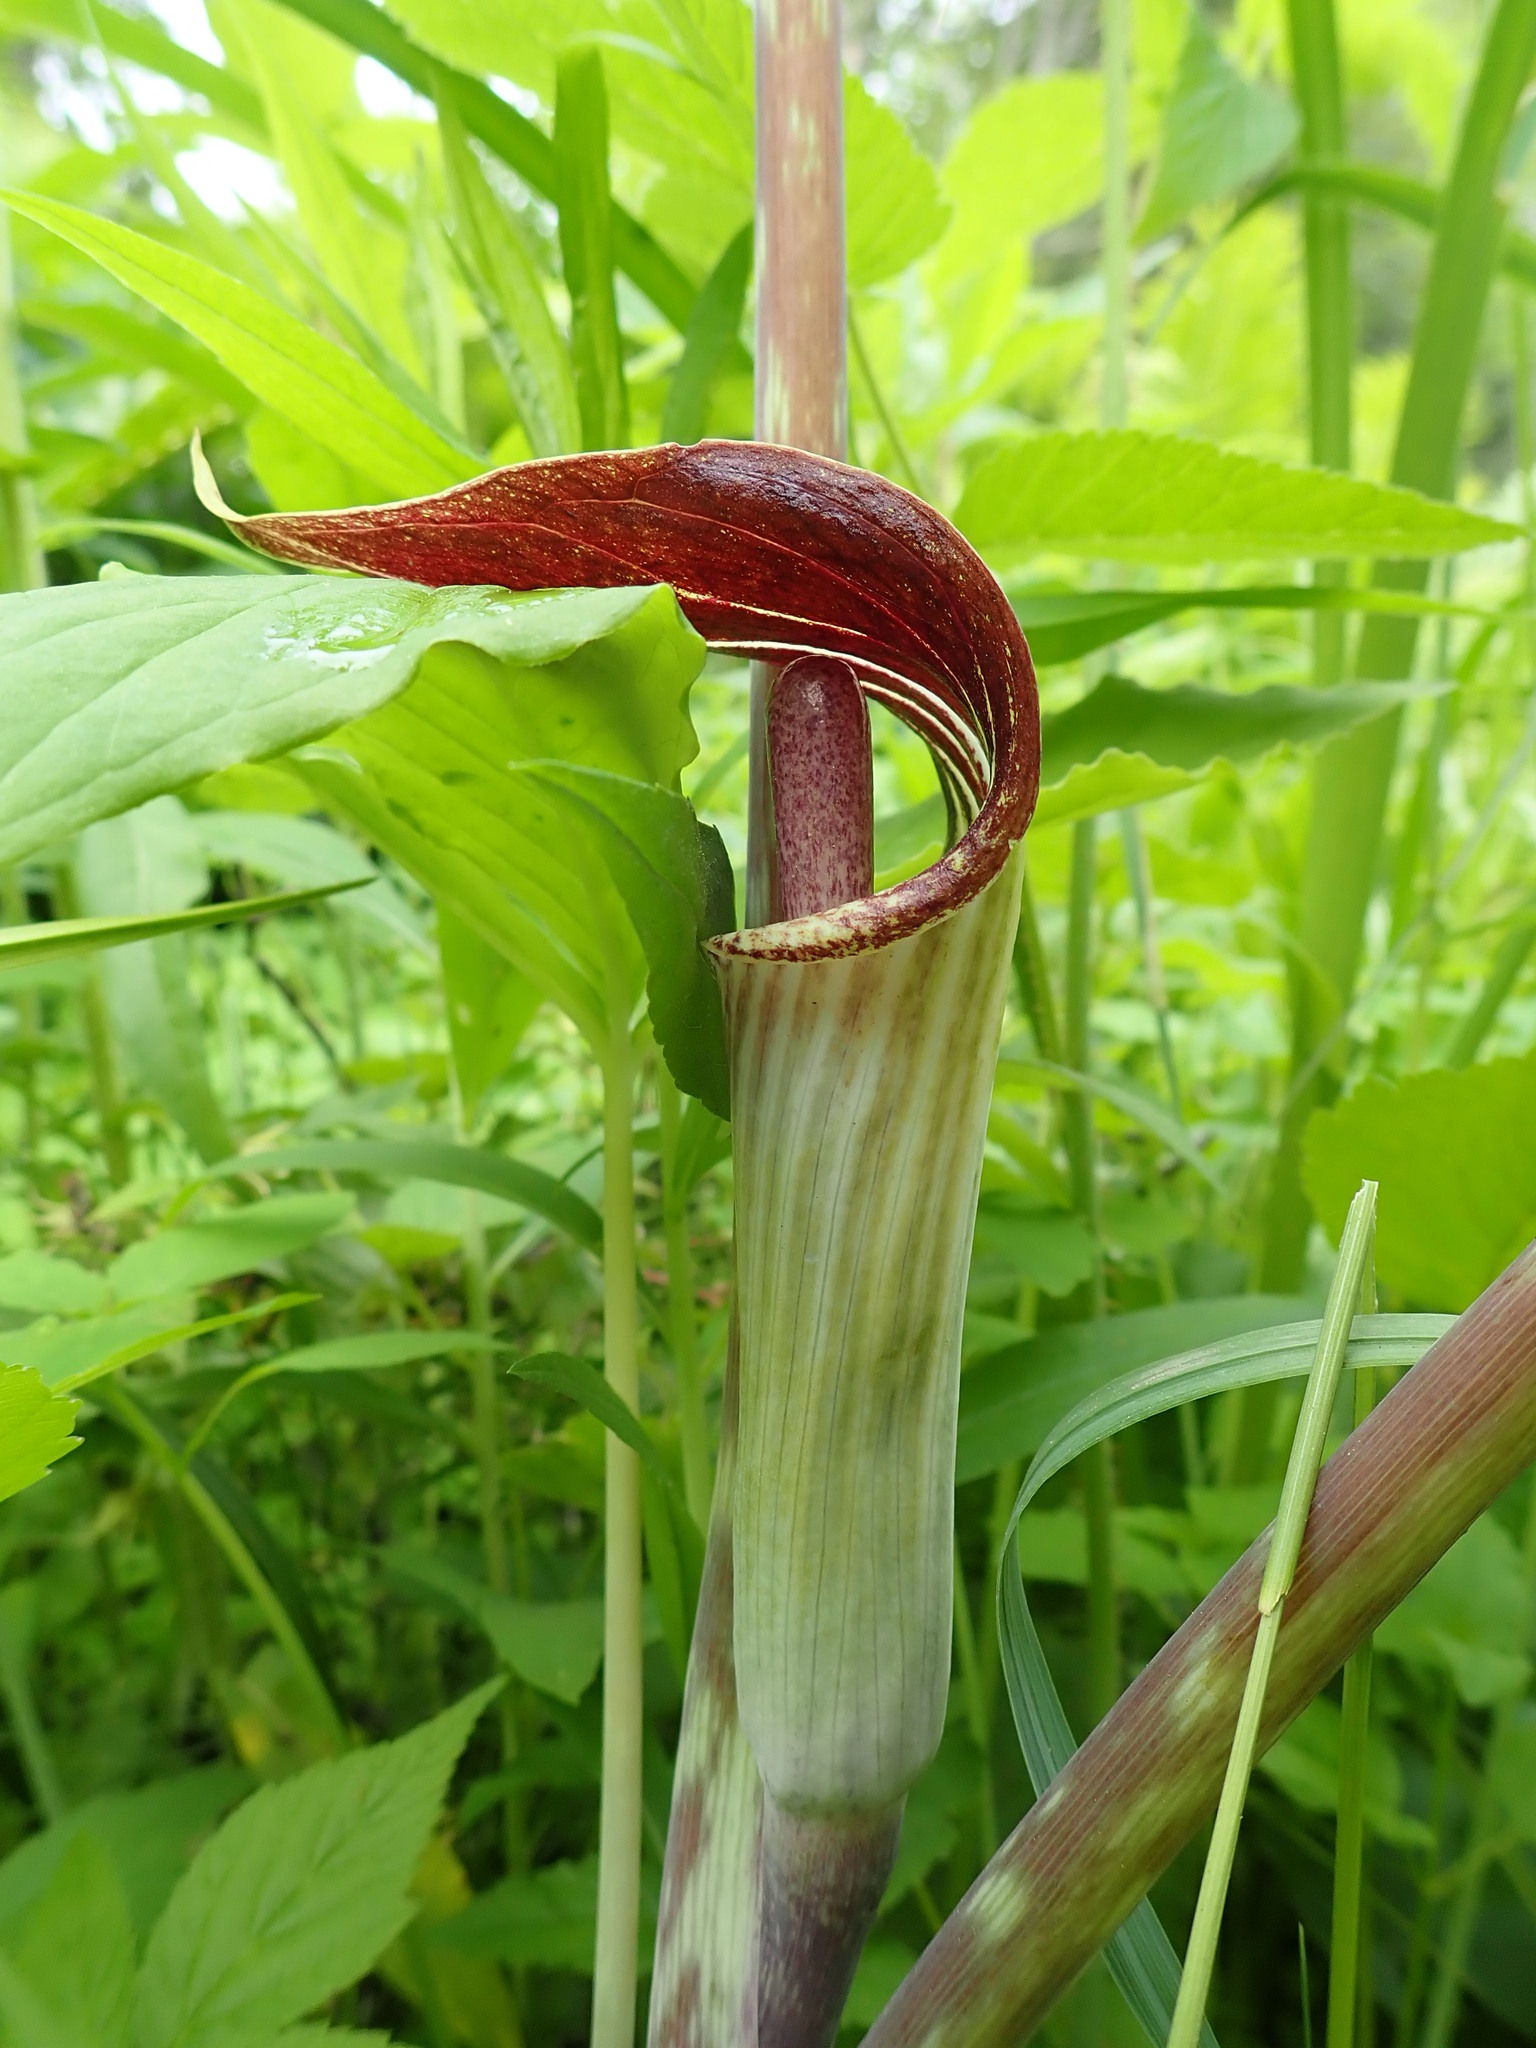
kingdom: Plantae
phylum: Tracheophyta
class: Liliopsida
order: Alismatales
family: Araceae
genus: Arisaema
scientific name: Arisaema triphyllum
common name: Jack-in-the-pulpit
